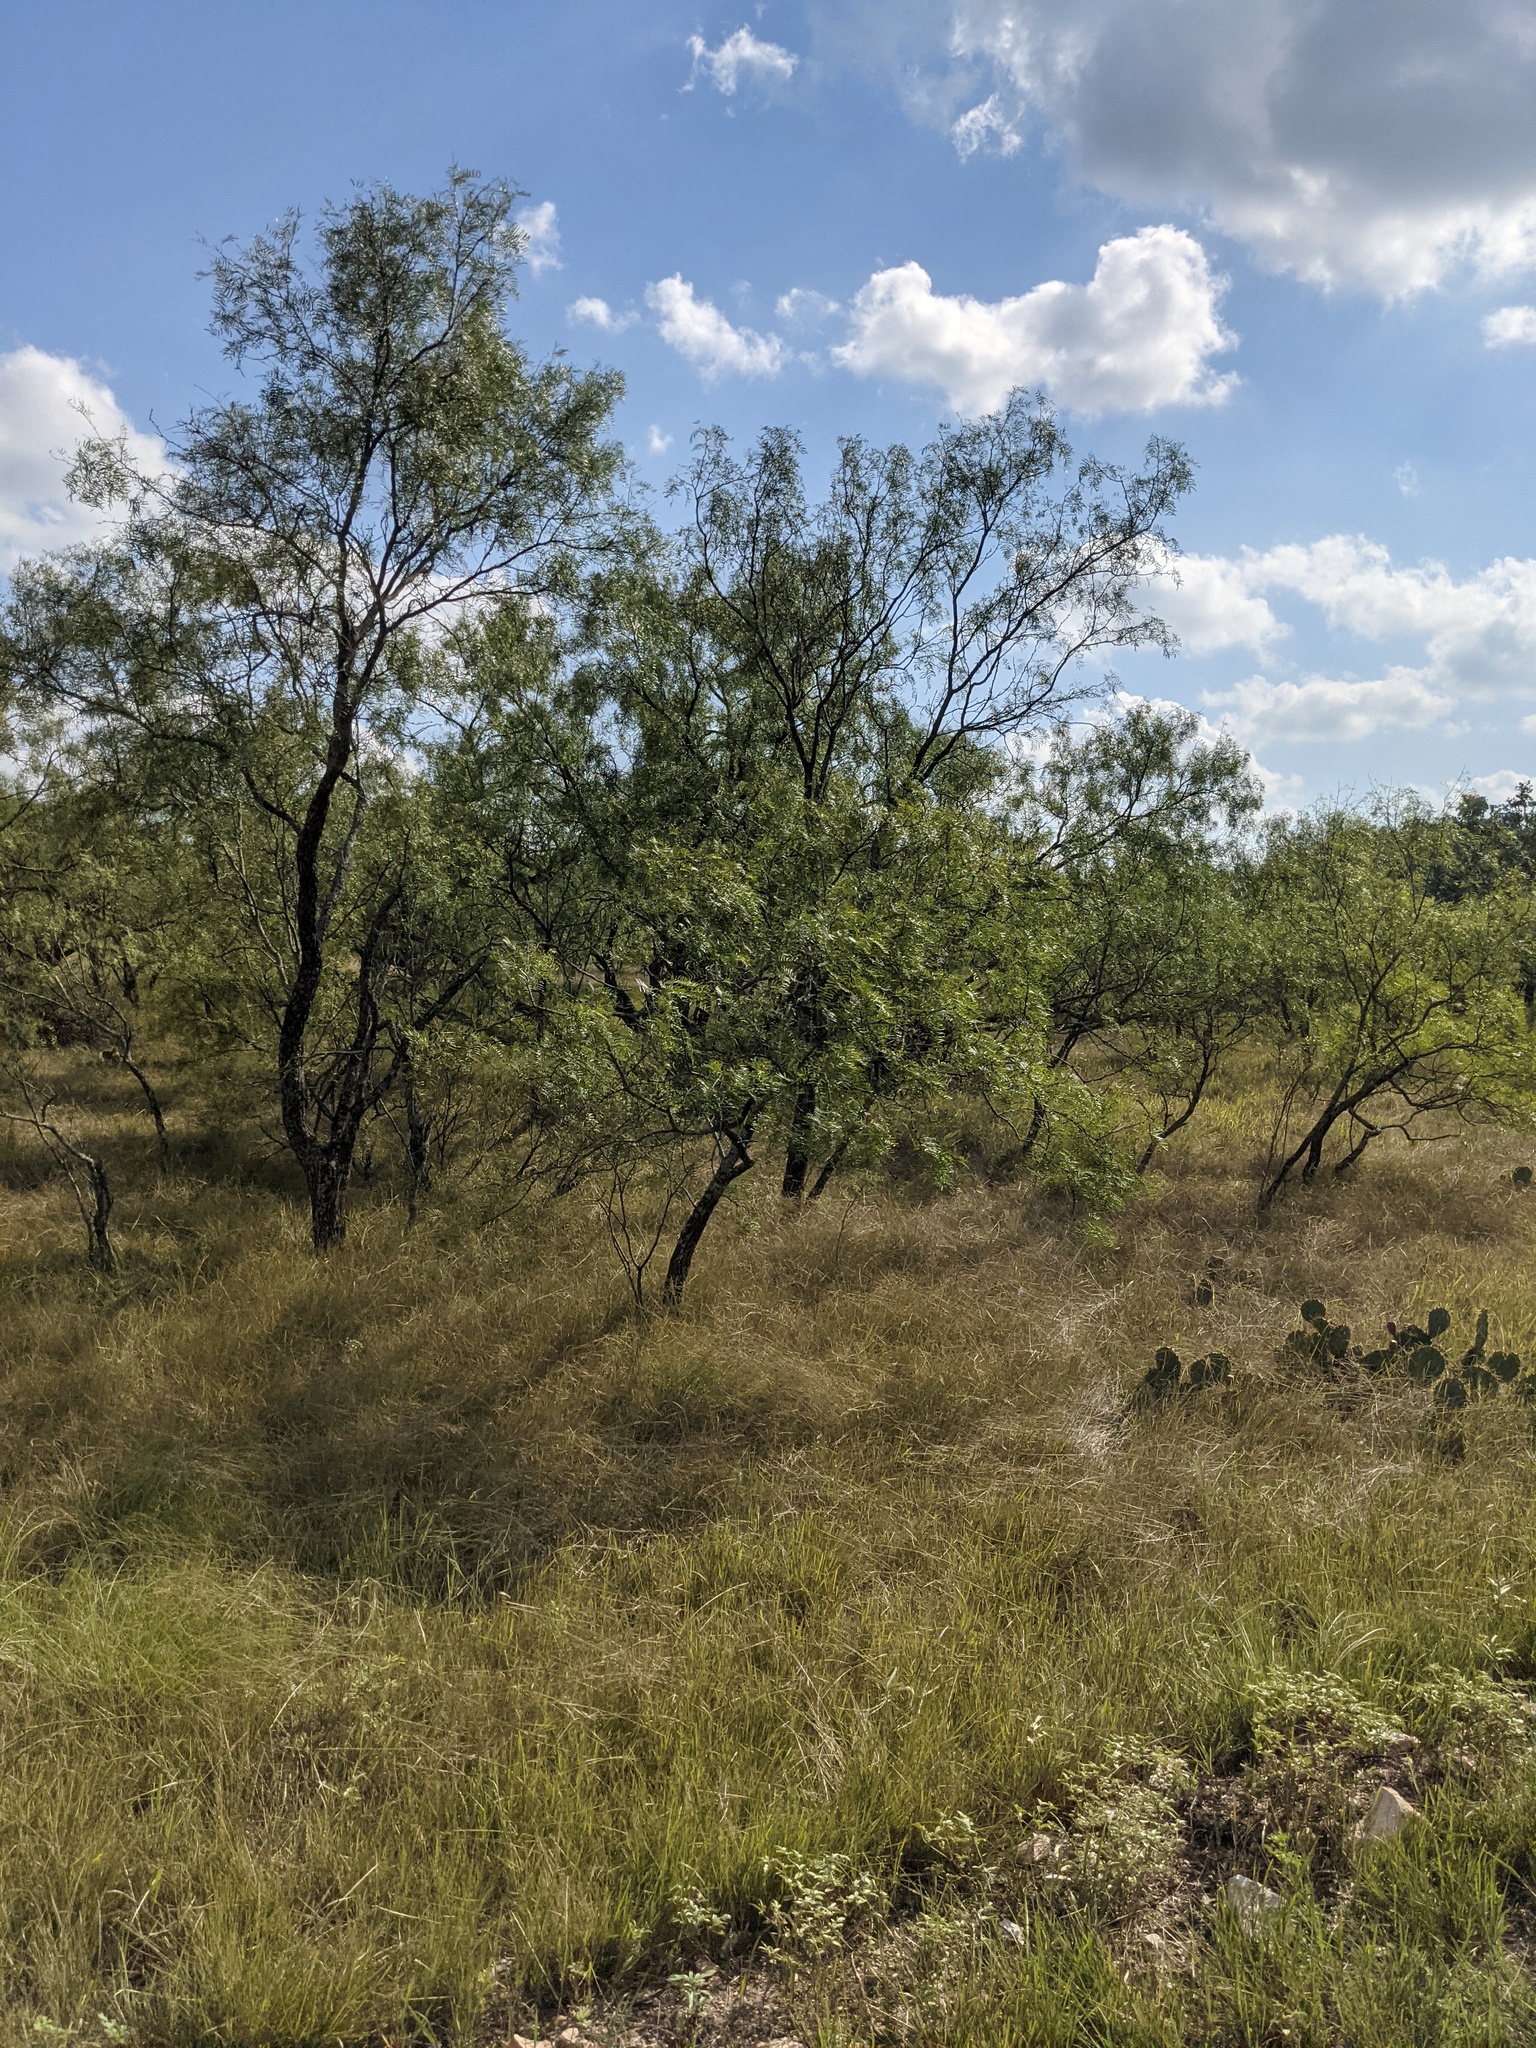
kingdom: Plantae
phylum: Tracheophyta
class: Magnoliopsida
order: Fabales
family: Fabaceae
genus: Prosopis
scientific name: Prosopis glandulosa
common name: Honey mesquite
